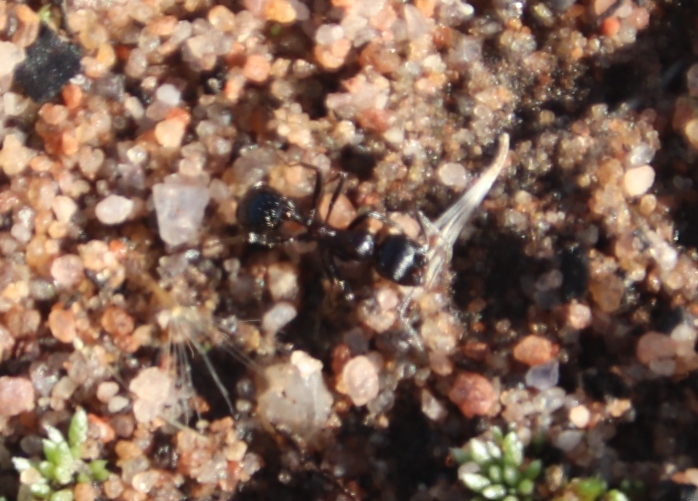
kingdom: Animalia
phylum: Arthropoda
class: Insecta
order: Hymenoptera
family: Formicidae
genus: Messor
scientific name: Messor capensis
